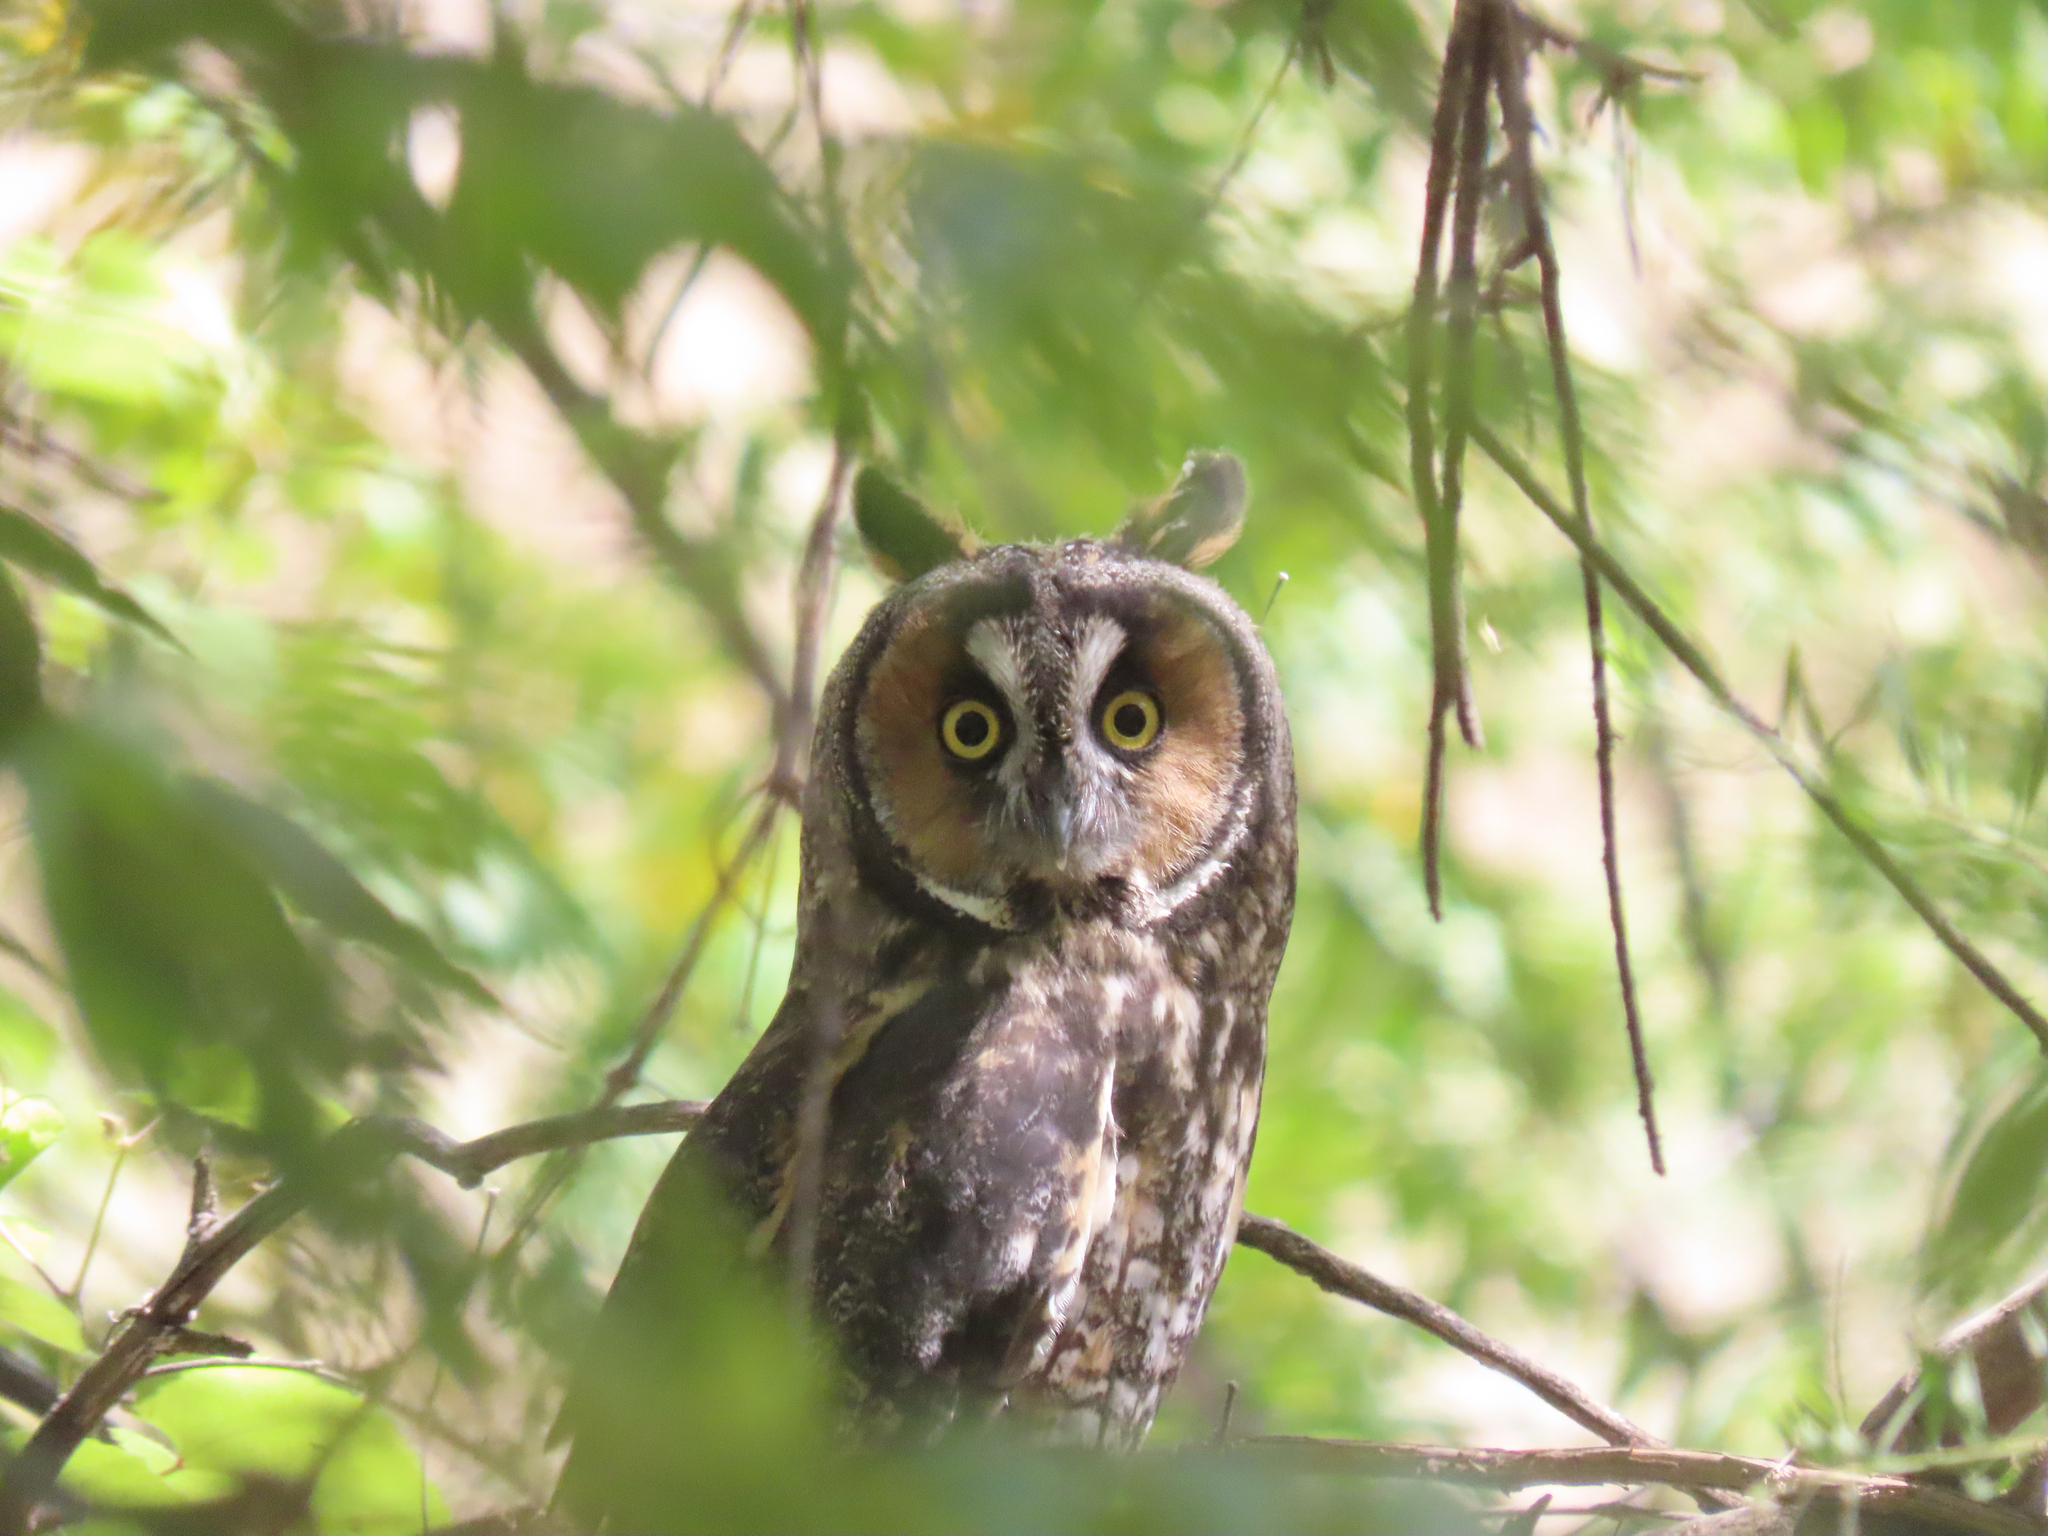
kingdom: Animalia
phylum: Chordata
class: Aves
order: Strigiformes
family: Strigidae
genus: Asio
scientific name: Asio otus
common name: Long-eared owl
